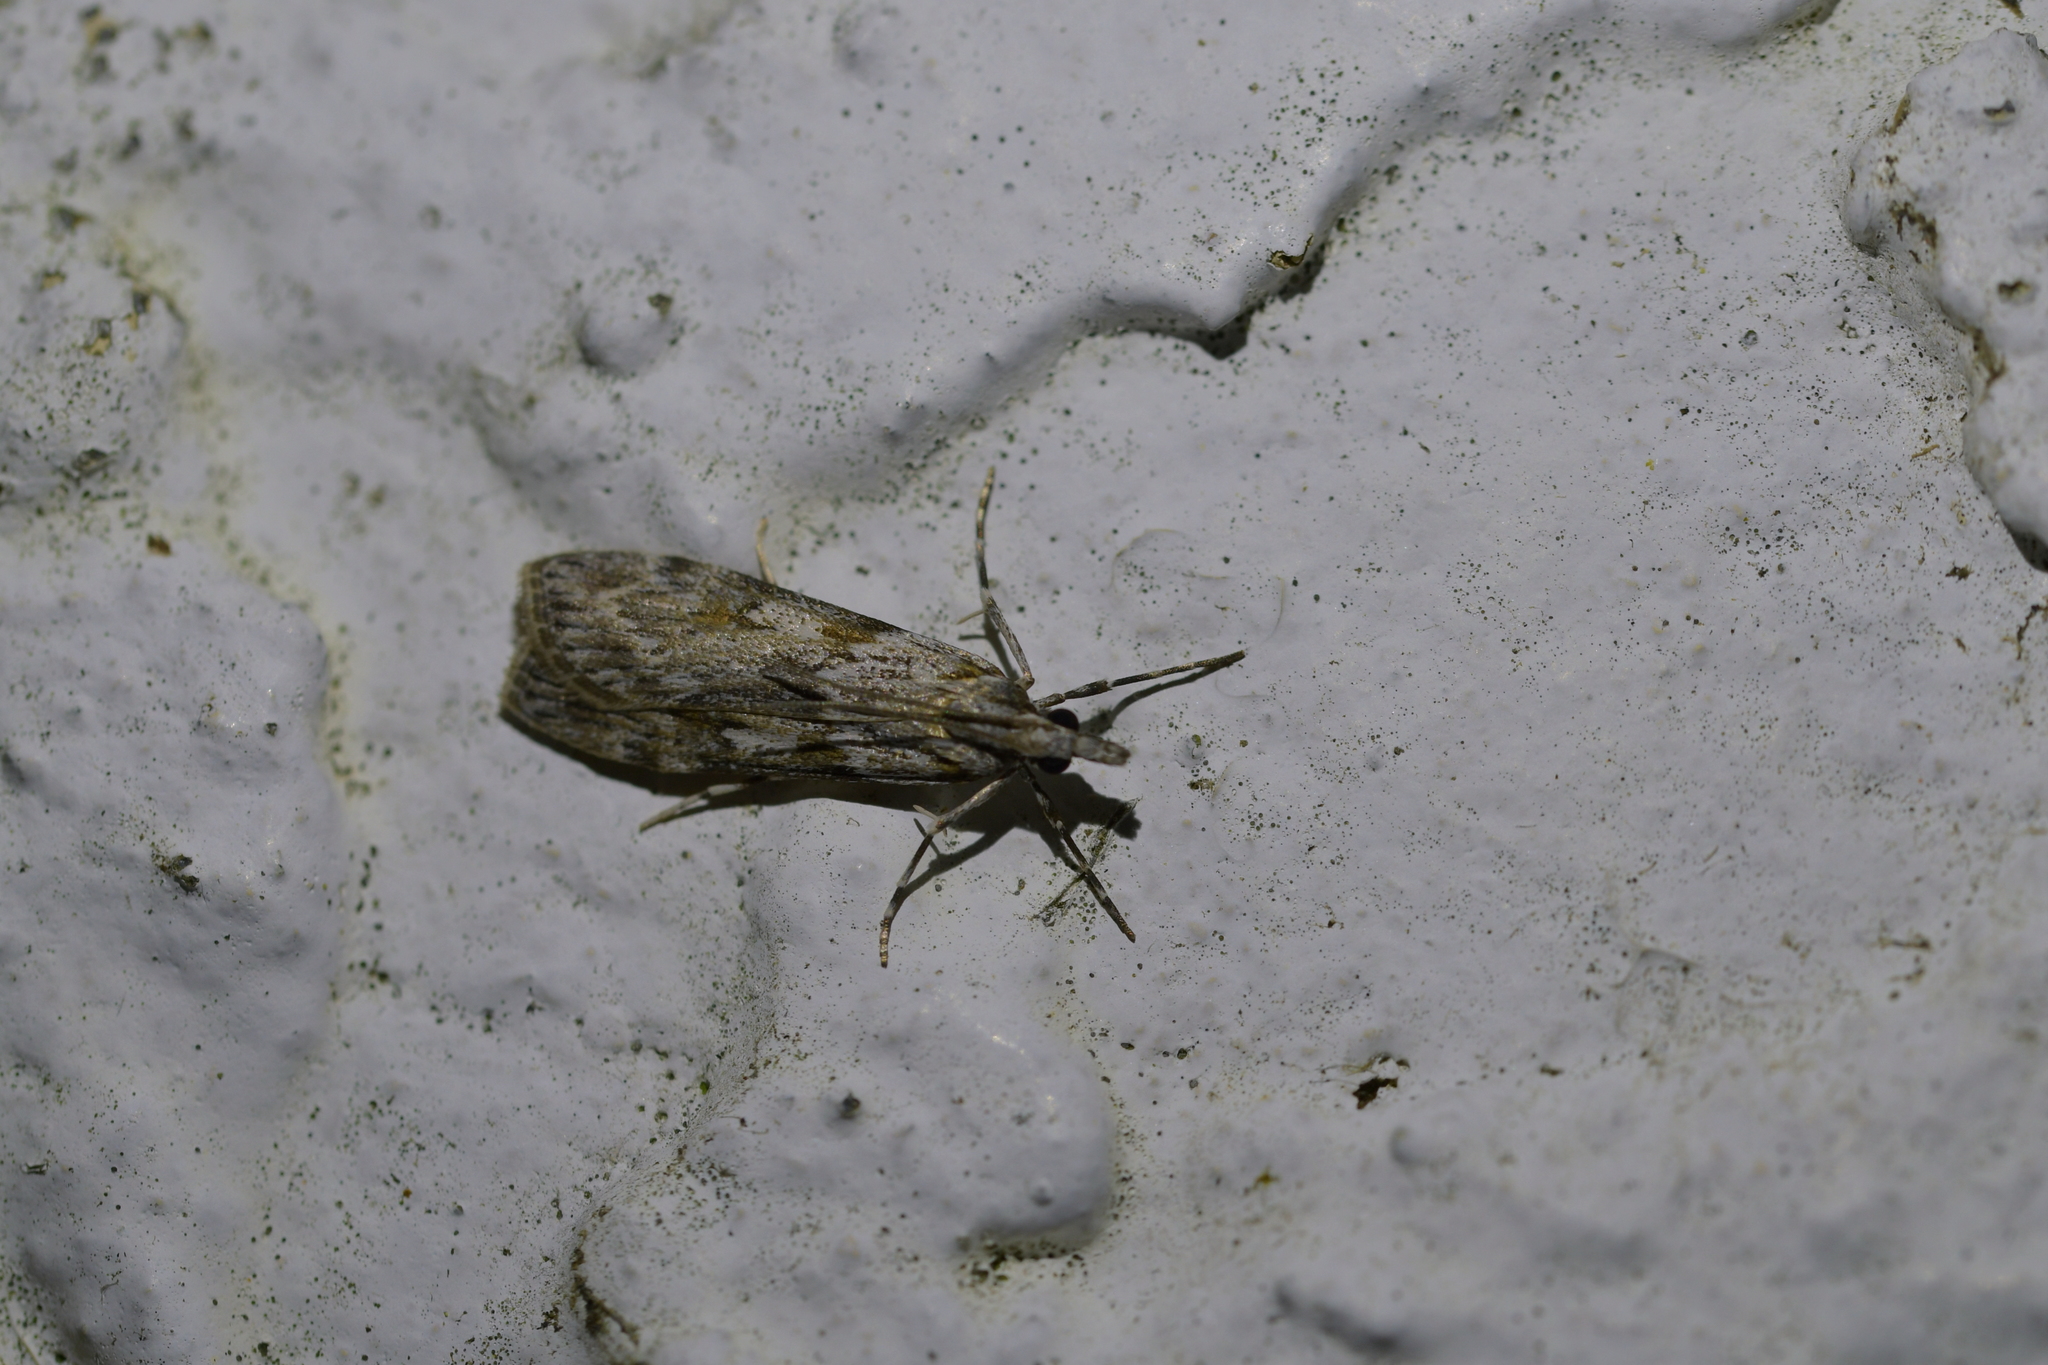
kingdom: Animalia
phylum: Arthropoda
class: Insecta
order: Lepidoptera
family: Crambidae
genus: Scoparia
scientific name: Scoparia halopis
